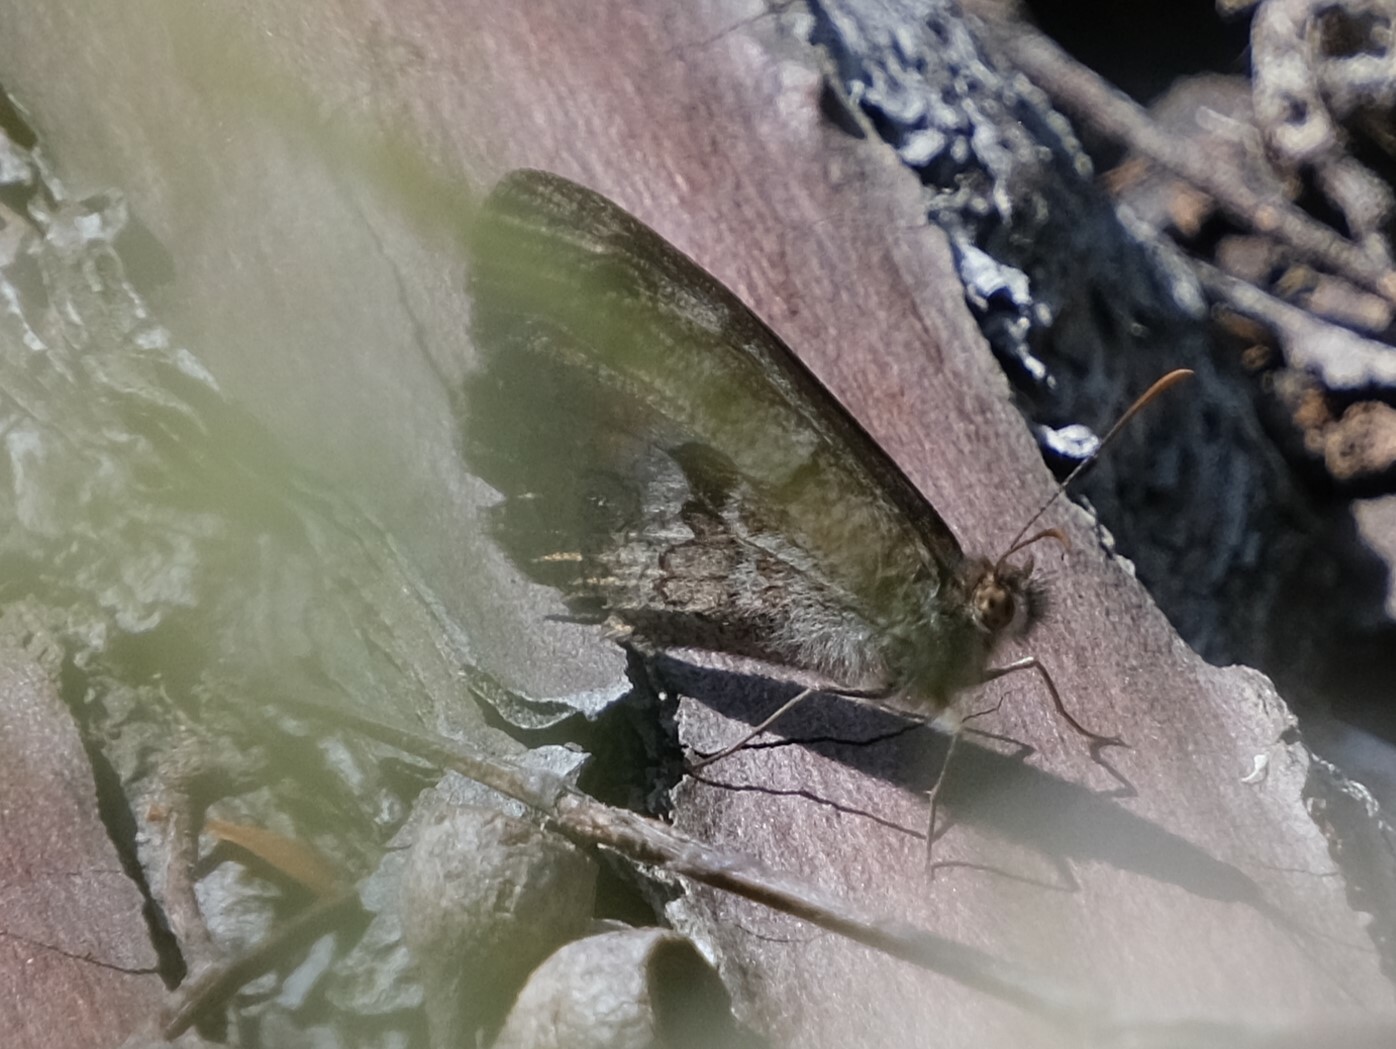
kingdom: Animalia
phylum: Arthropoda
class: Insecta
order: Lepidoptera
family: Nymphalidae
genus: Geitoneura
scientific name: Geitoneura klugii
